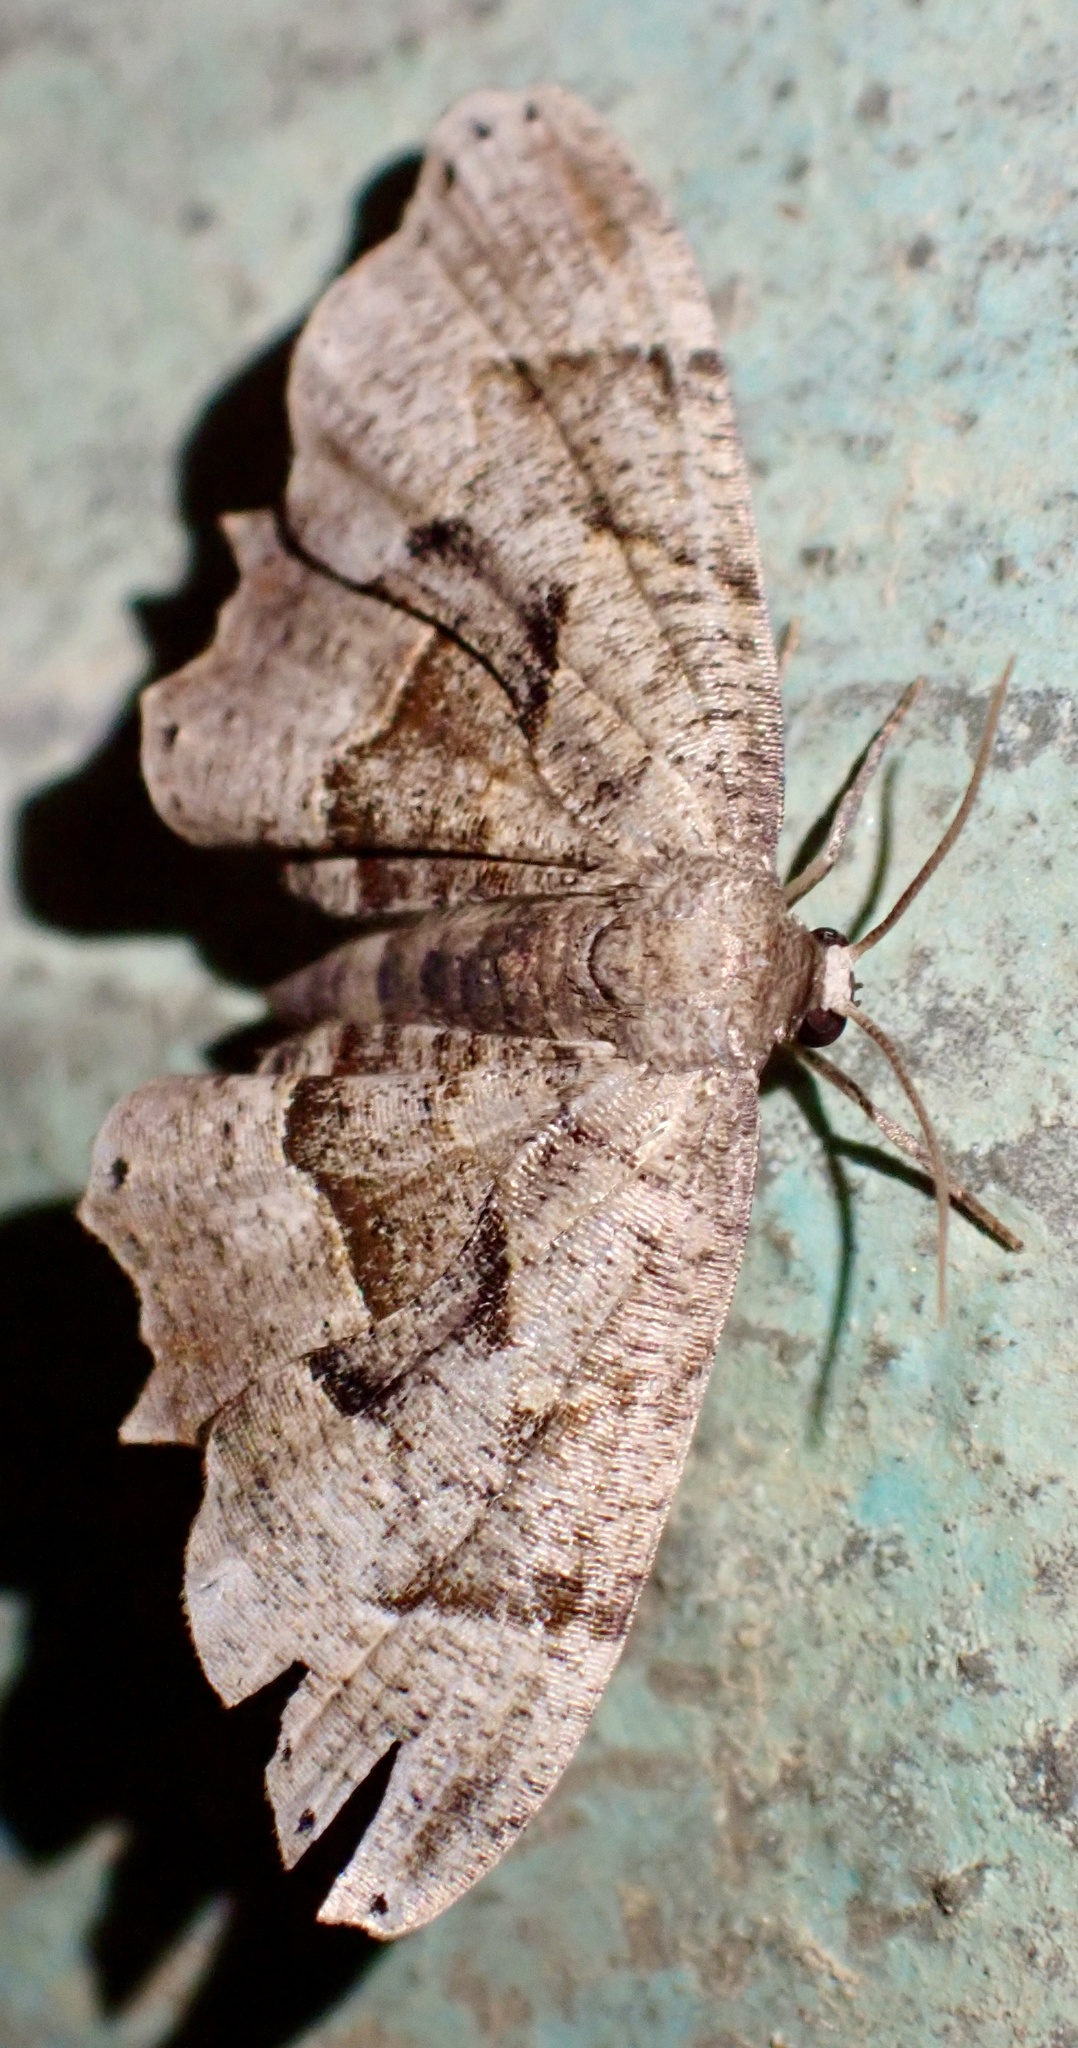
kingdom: Animalia
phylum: Arthropoda
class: Insecta
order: Lepidoptera
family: Uraniidae
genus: Phazaca
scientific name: Phazaca
